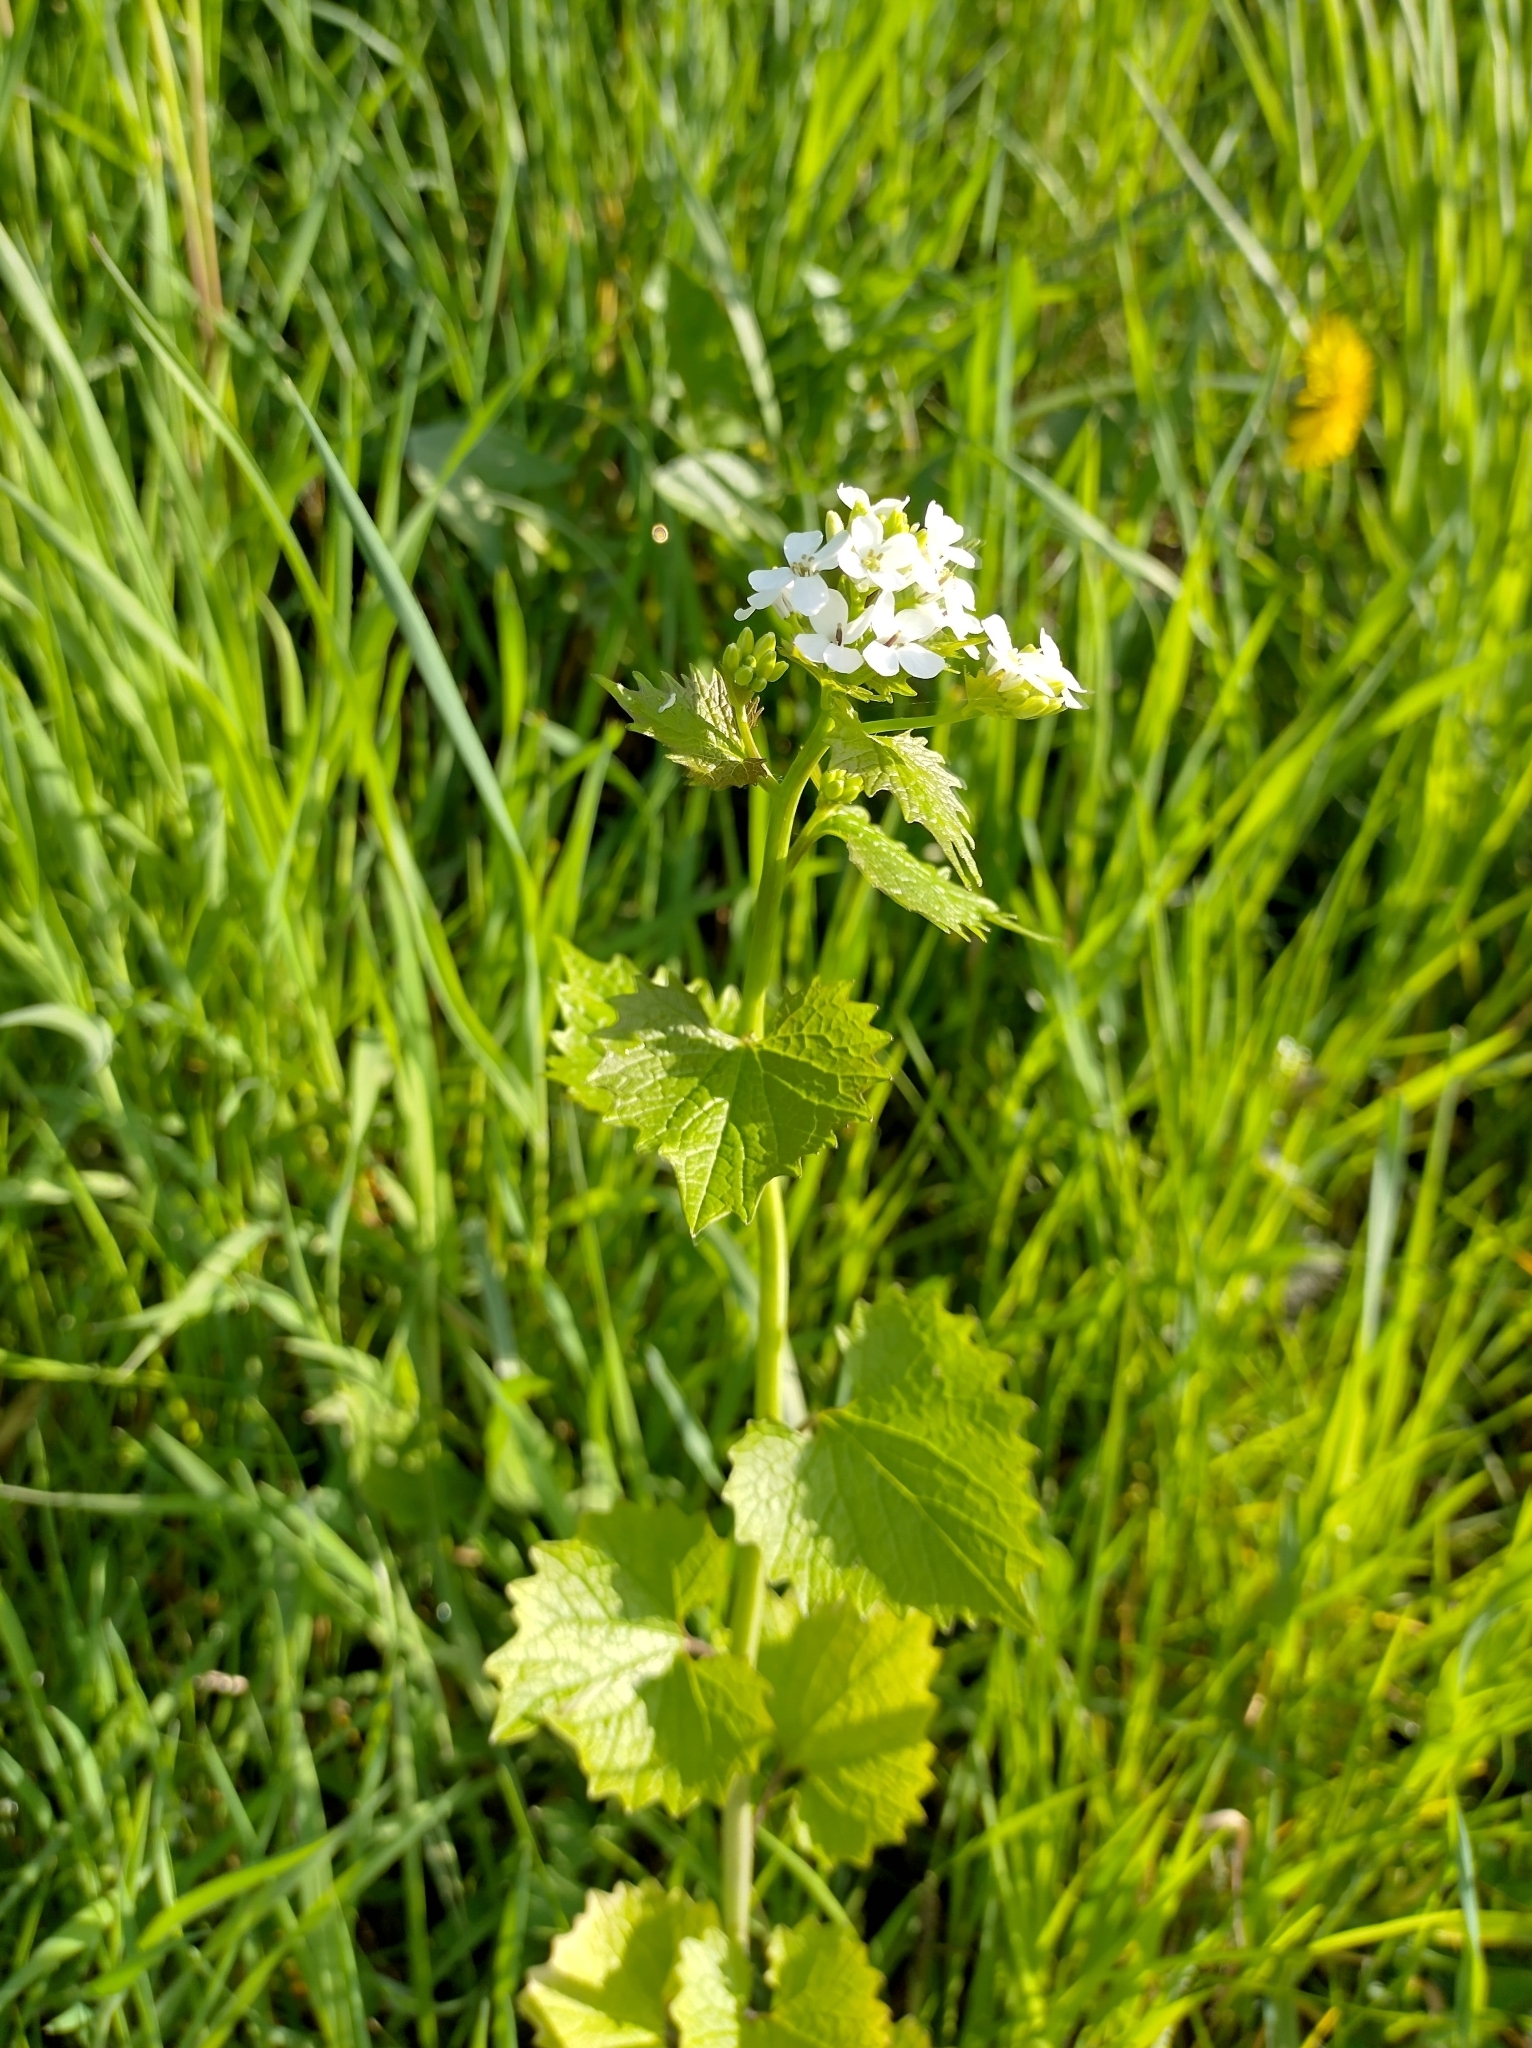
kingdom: Plantae
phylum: Tracheophyta
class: Magnoliopsida
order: Brassicales
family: Brassicaceae
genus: Alliaria
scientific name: Alliaria petiolata
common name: Garlic mustard
